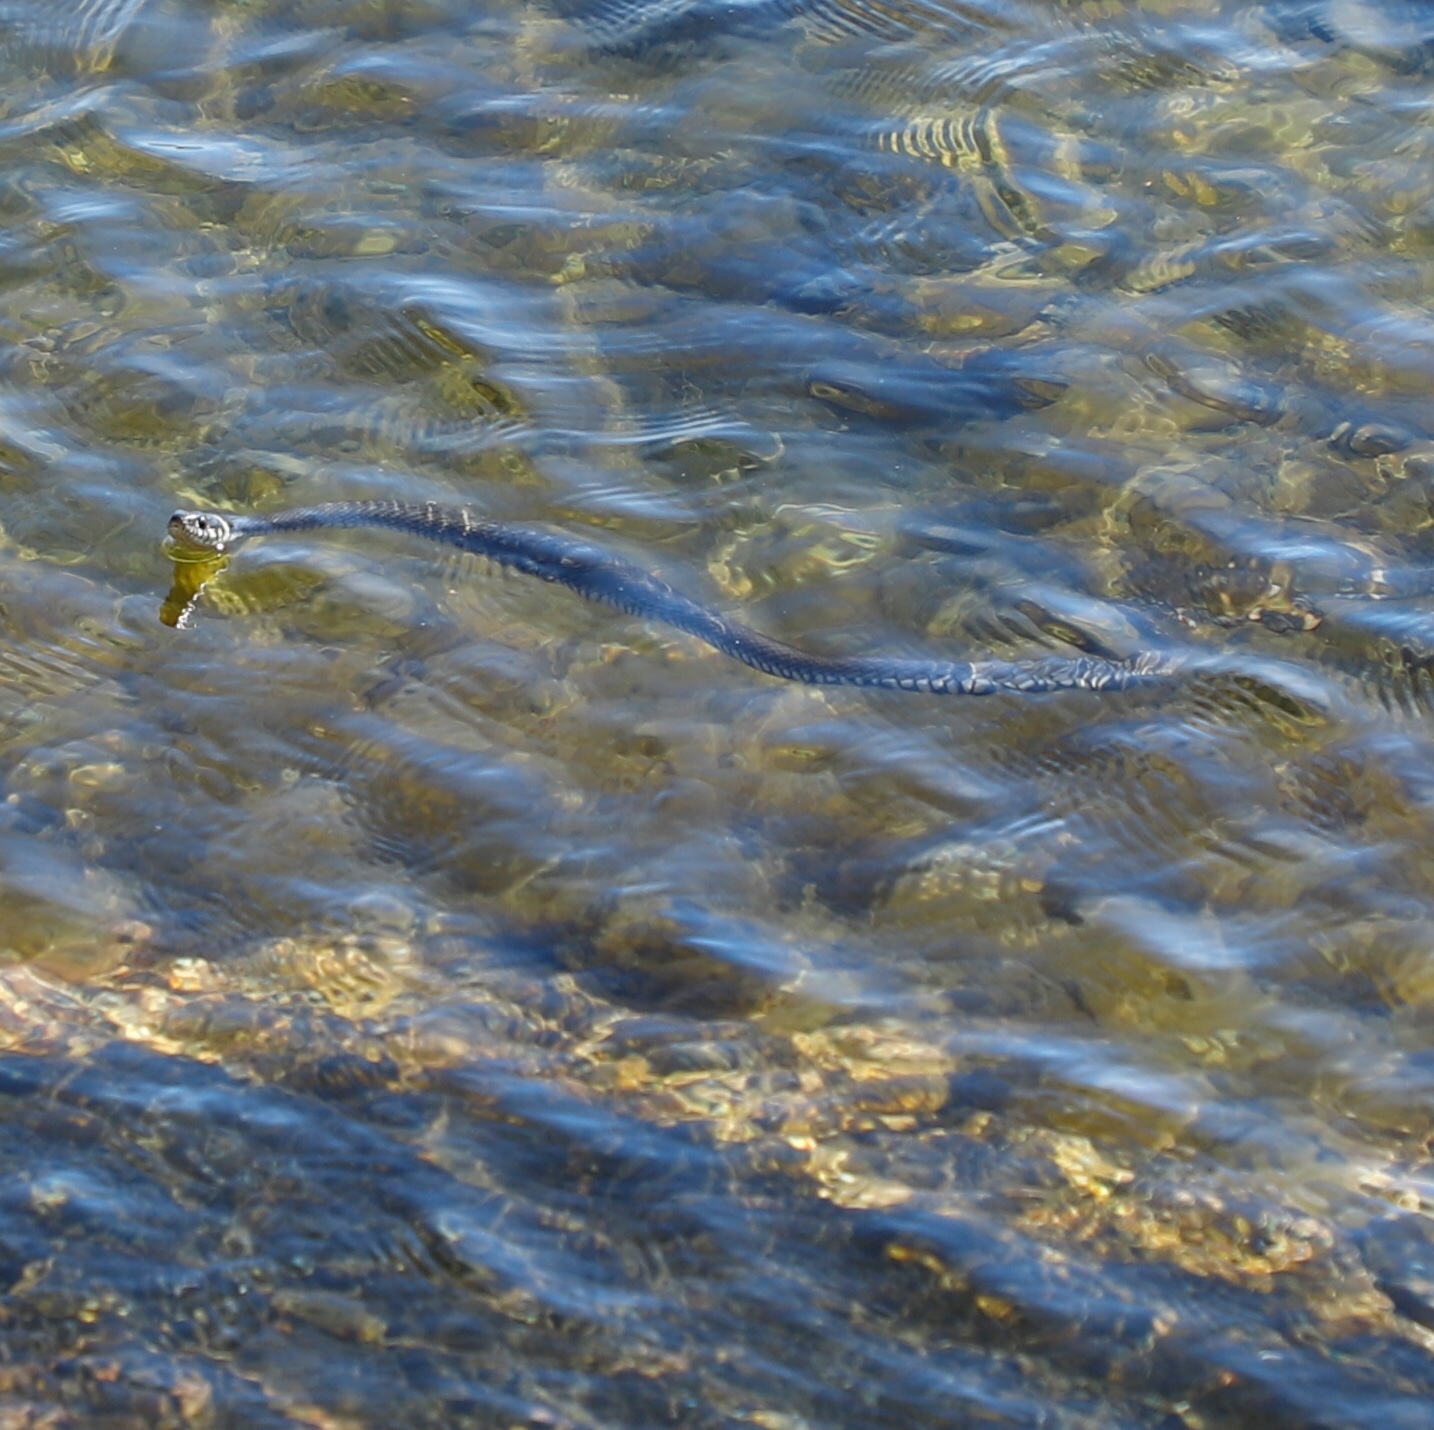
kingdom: Animalia
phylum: Chordata
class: Squamata
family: Colubridae
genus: Natrix
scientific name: Natrix natrix
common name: Grass snake
